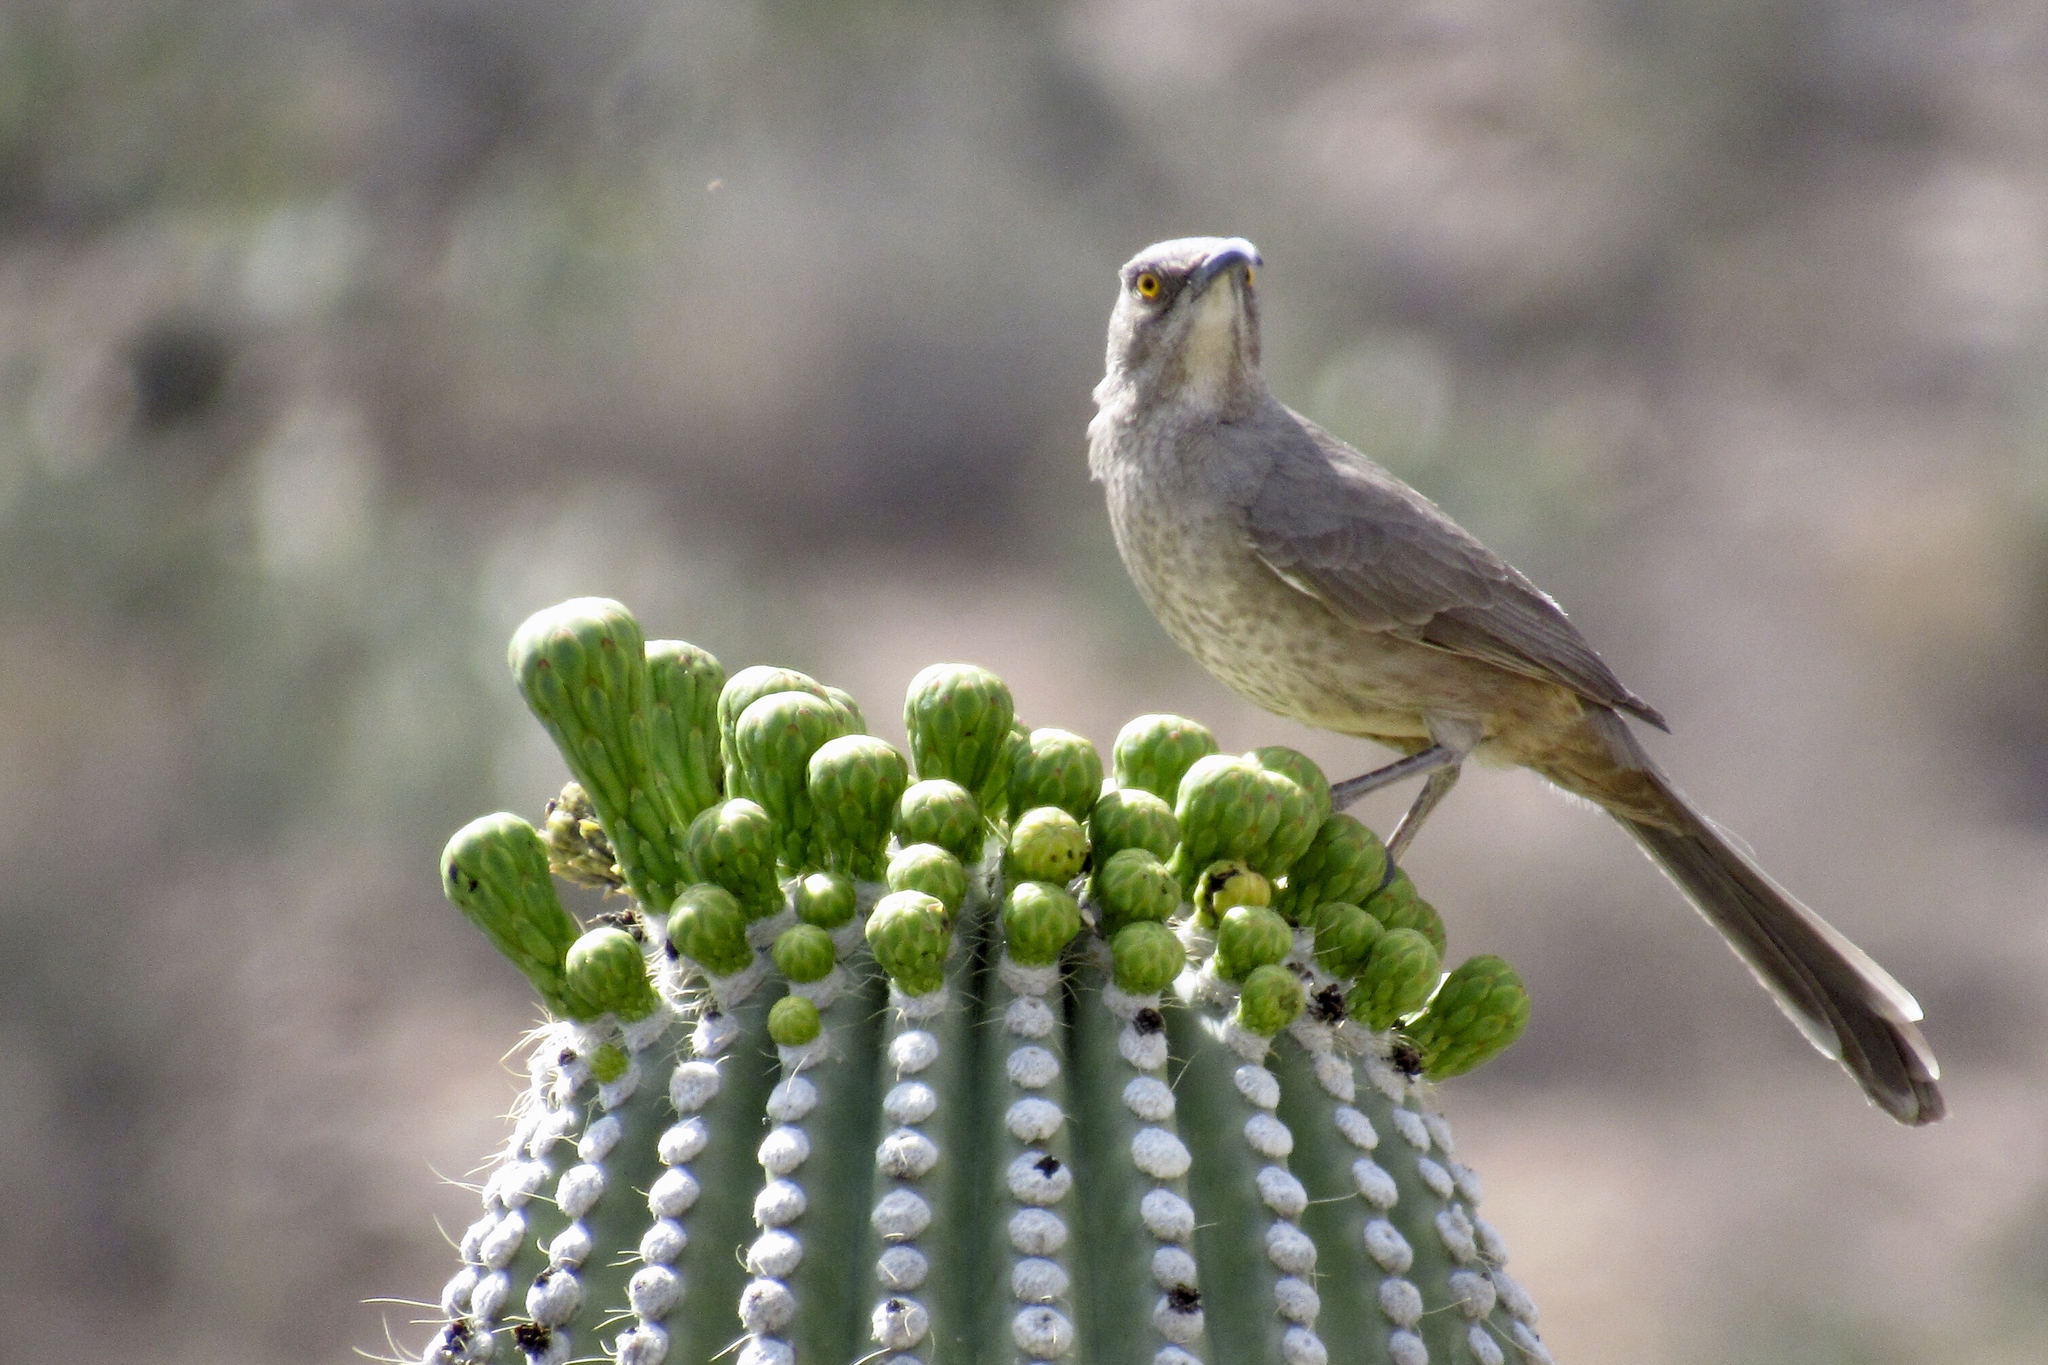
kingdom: Animalia
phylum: Chordata
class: Aves
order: Passeriformes
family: Mimidae
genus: Toxostoma
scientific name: Toxostoma curvirostre
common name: Curve-billed thrasher
